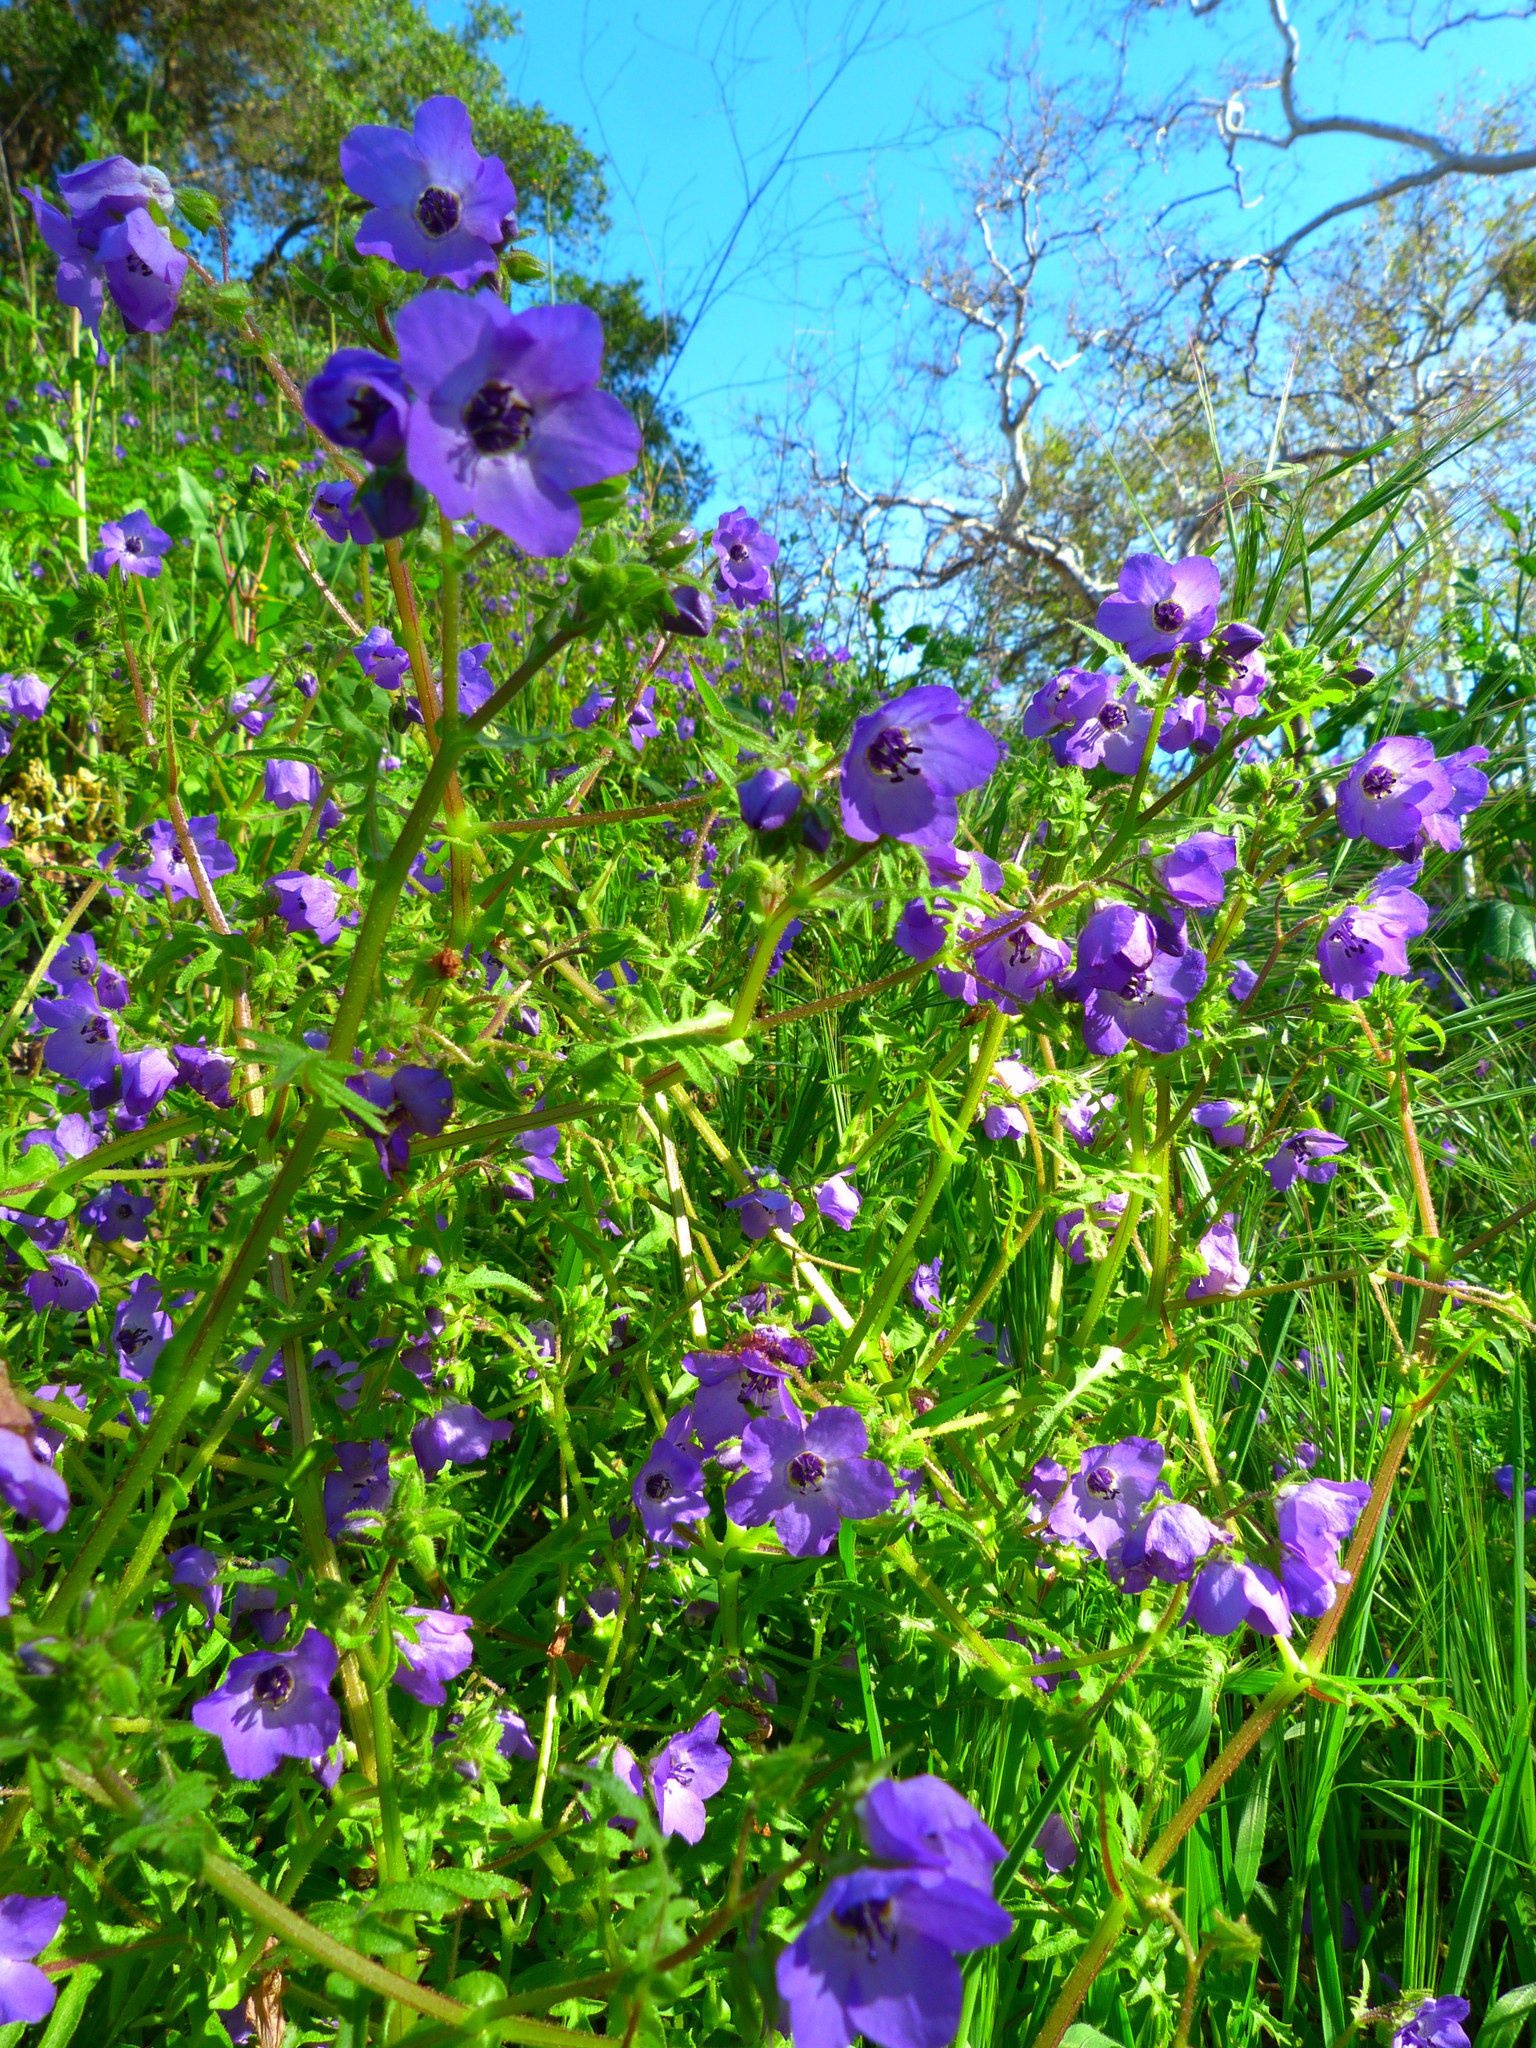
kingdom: Plantae
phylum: Tracheophyta
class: Magnoliopsida
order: Boraginales
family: Hydrophyllaceae
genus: Pholistoma
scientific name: Pholistoma auritum
